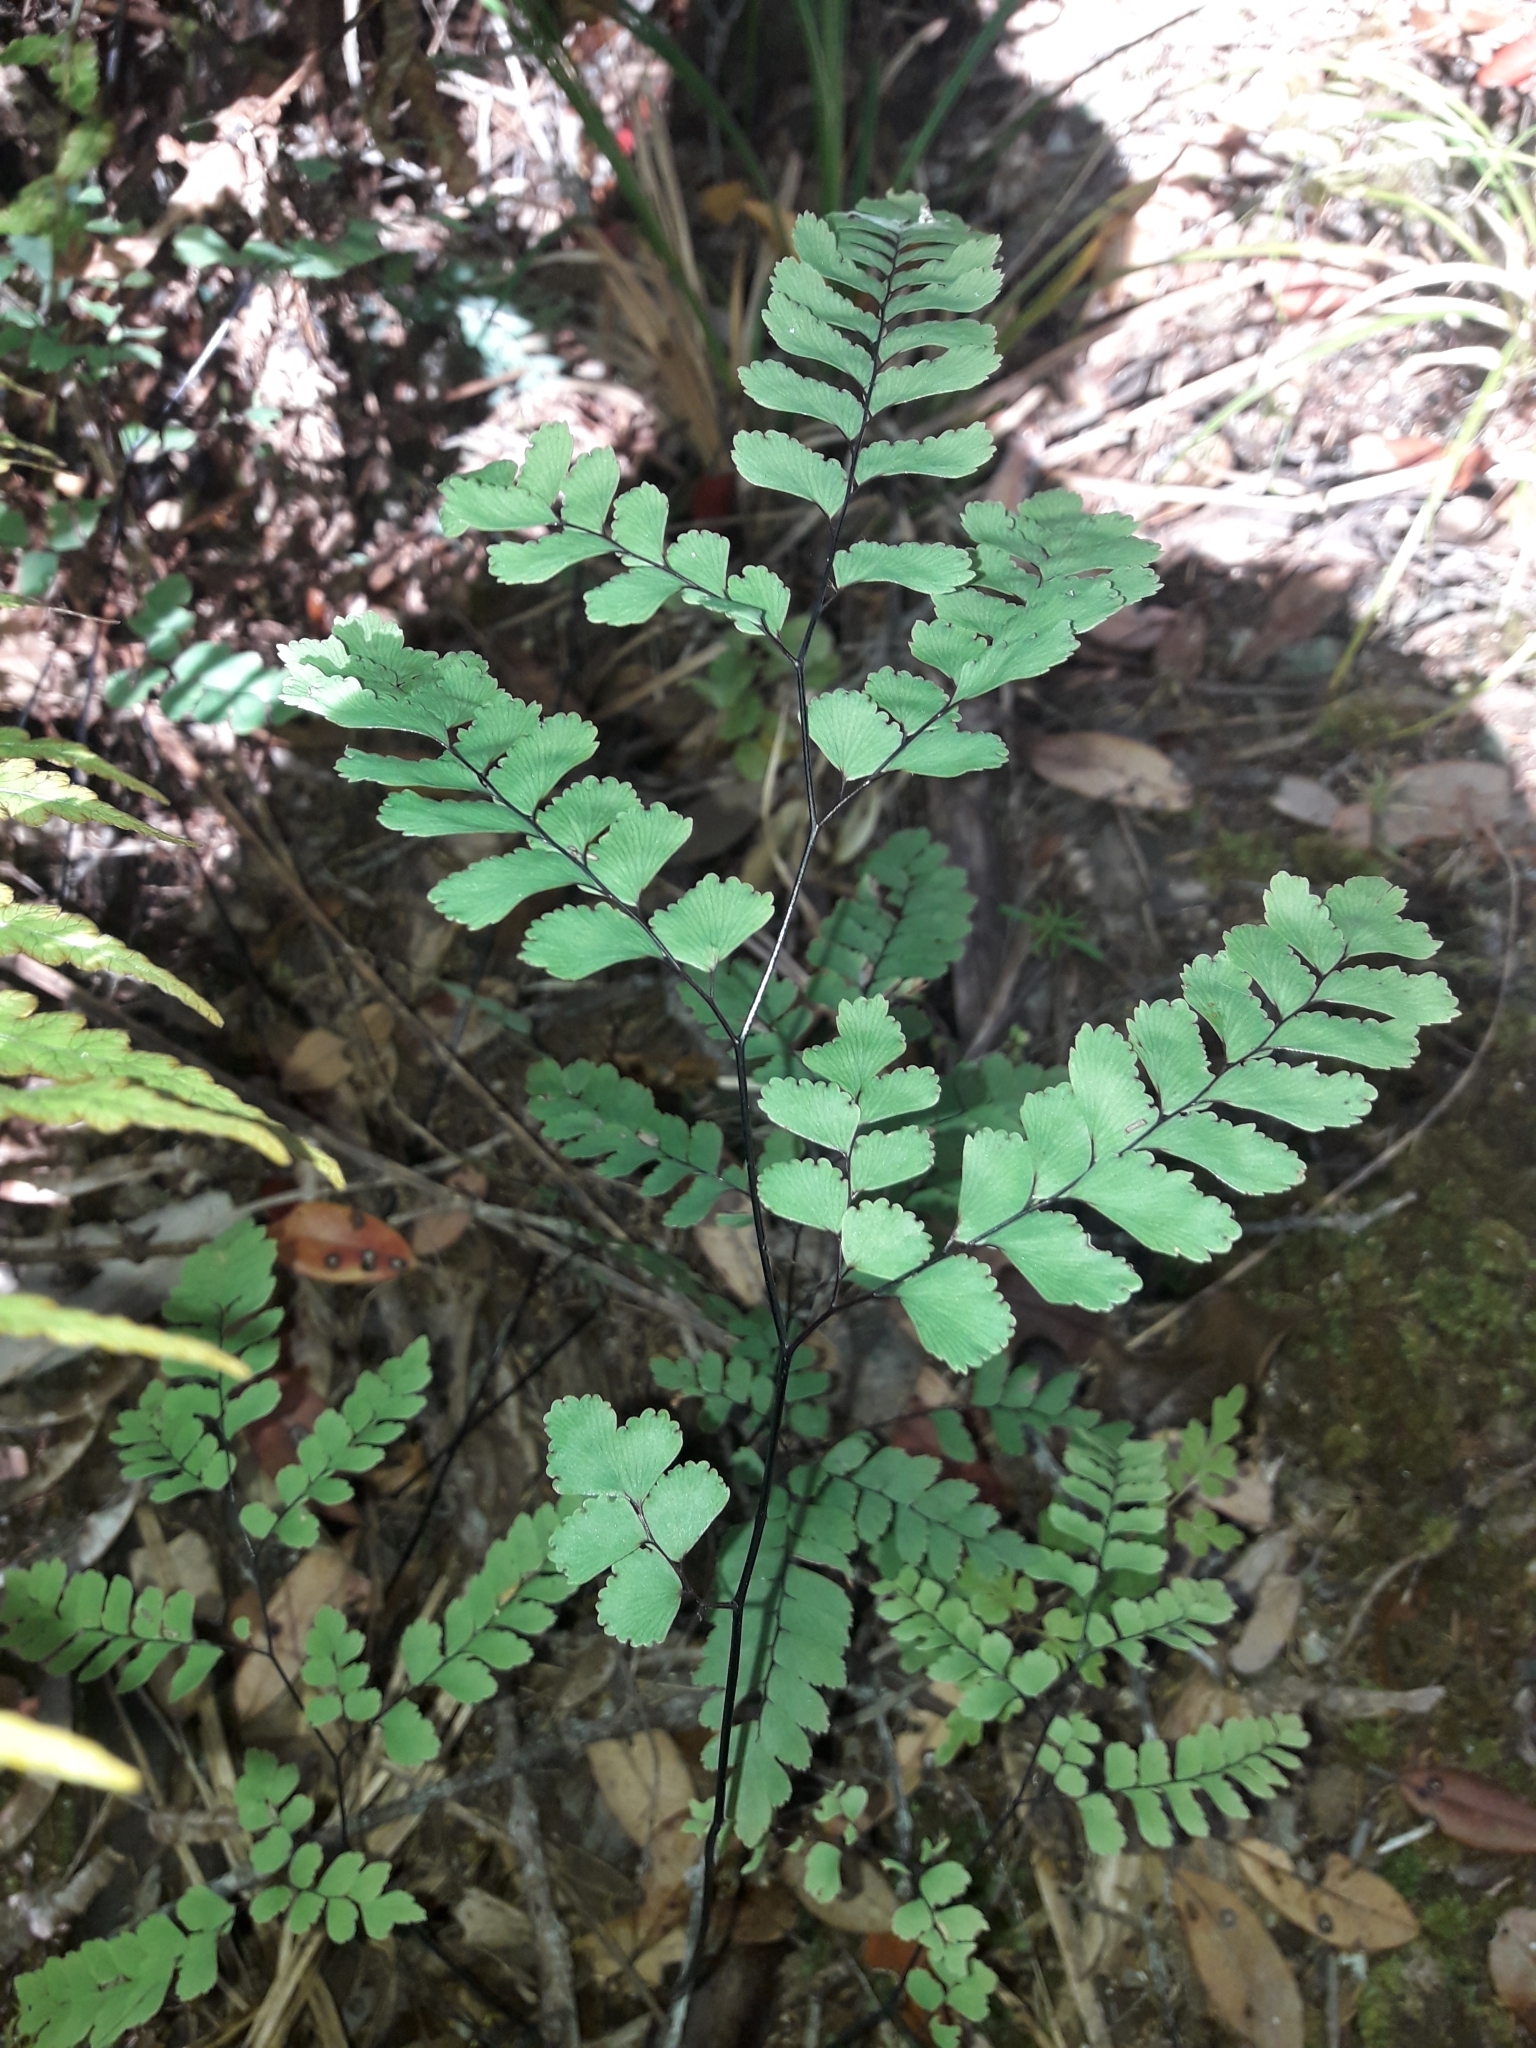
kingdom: Plantae
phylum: Tracheophyta
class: Polypodiopsida
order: Polypodiales
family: Pteridaceae
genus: Adiantum
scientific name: Adiantum cunninghamii
